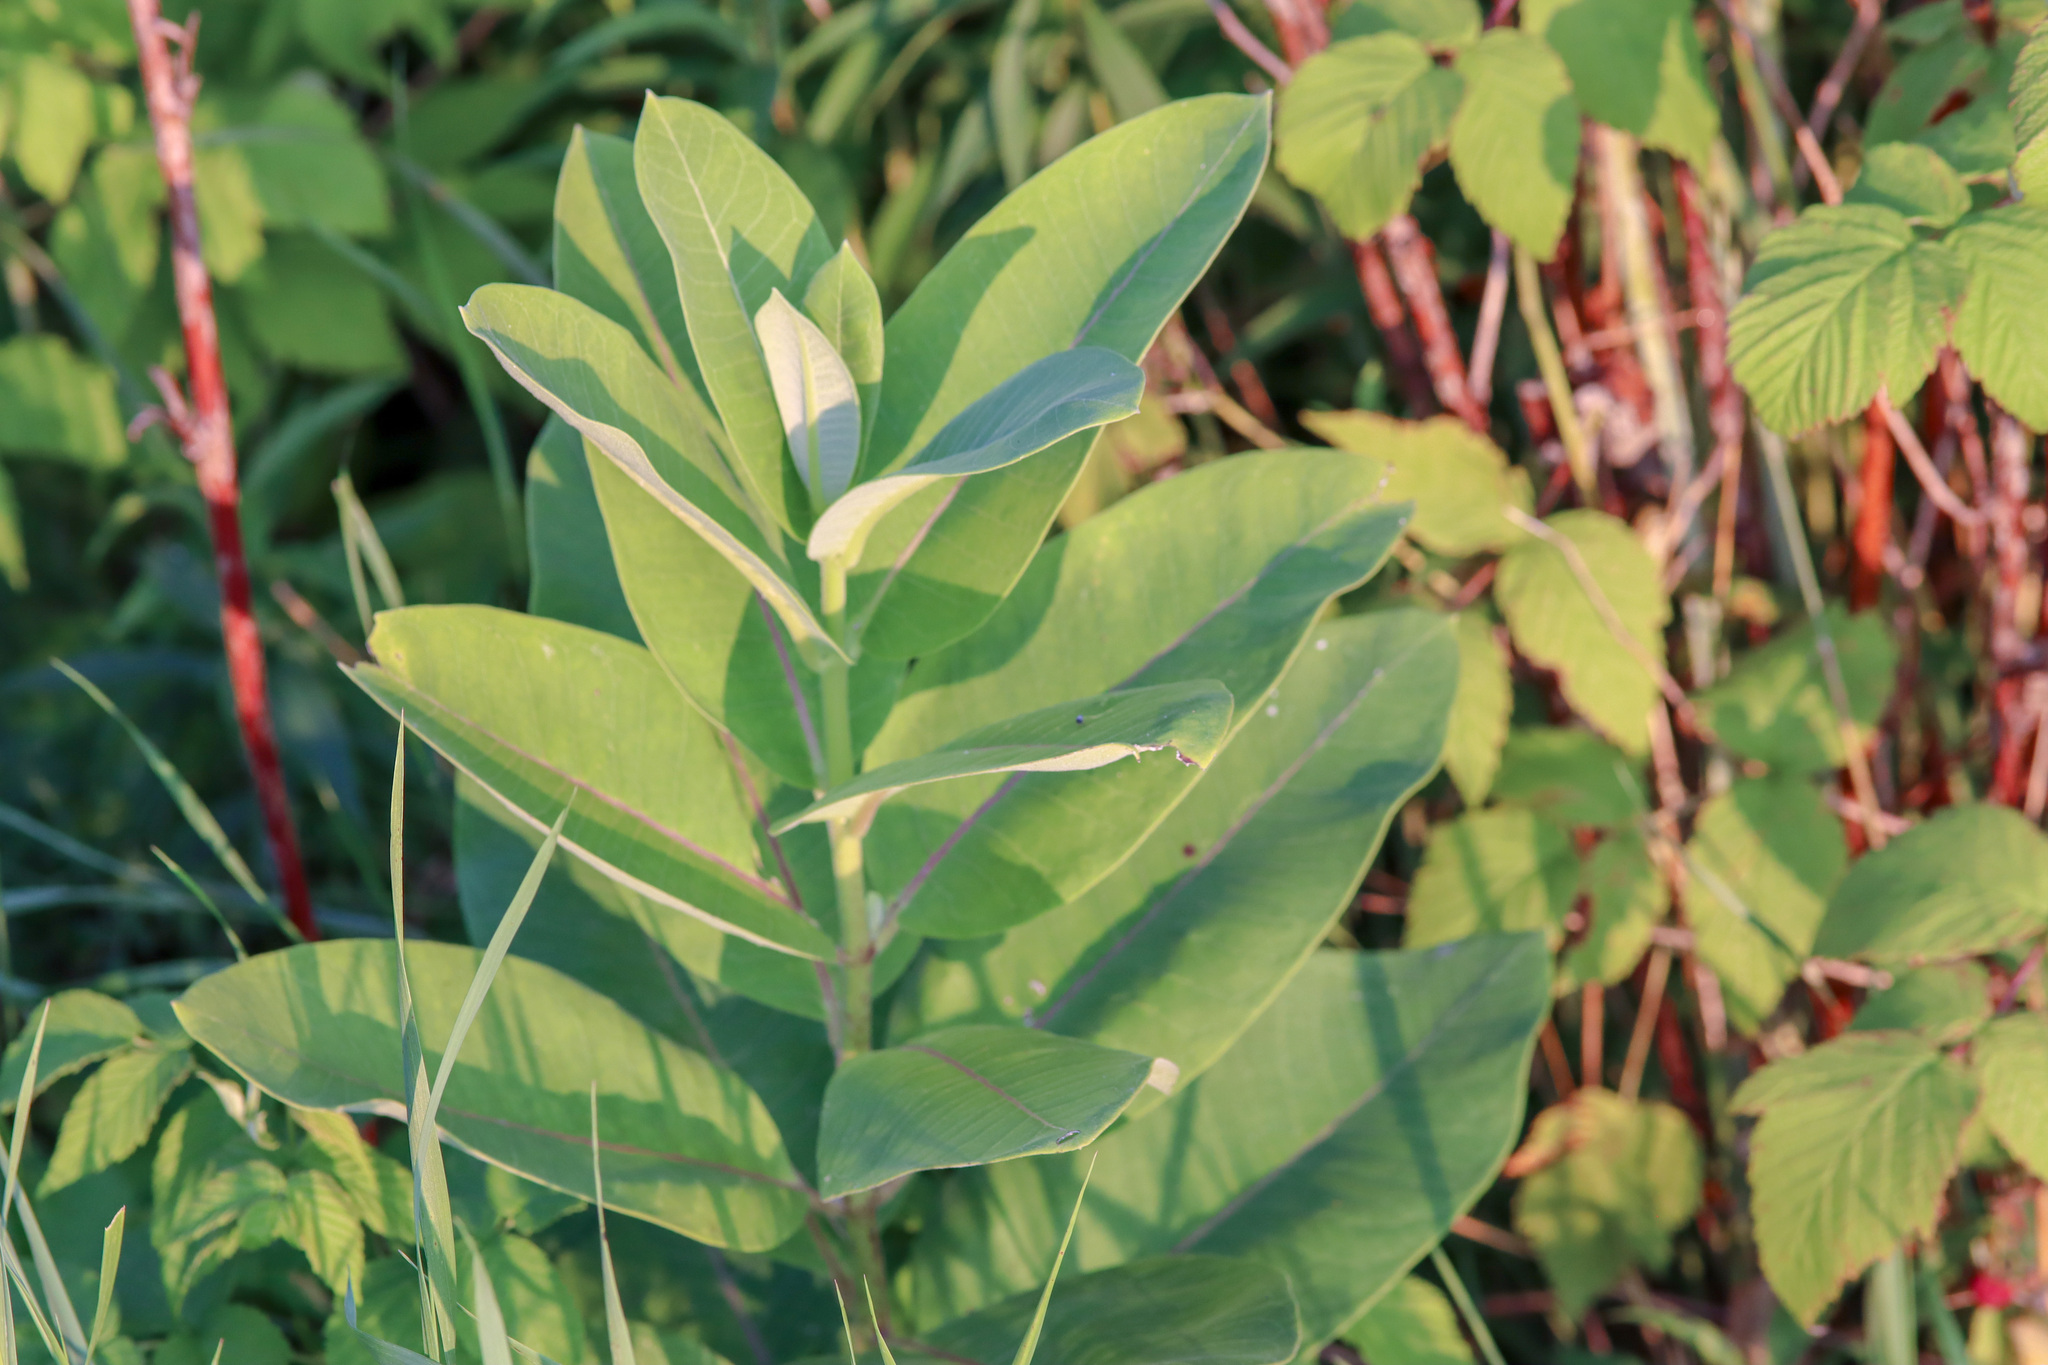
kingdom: Plantae
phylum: Tracheophyta
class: Magnoliopsida
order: Gentianales
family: Apocynaceae
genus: Asclepias
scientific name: Asclepias syriaca
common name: Common milkweed
